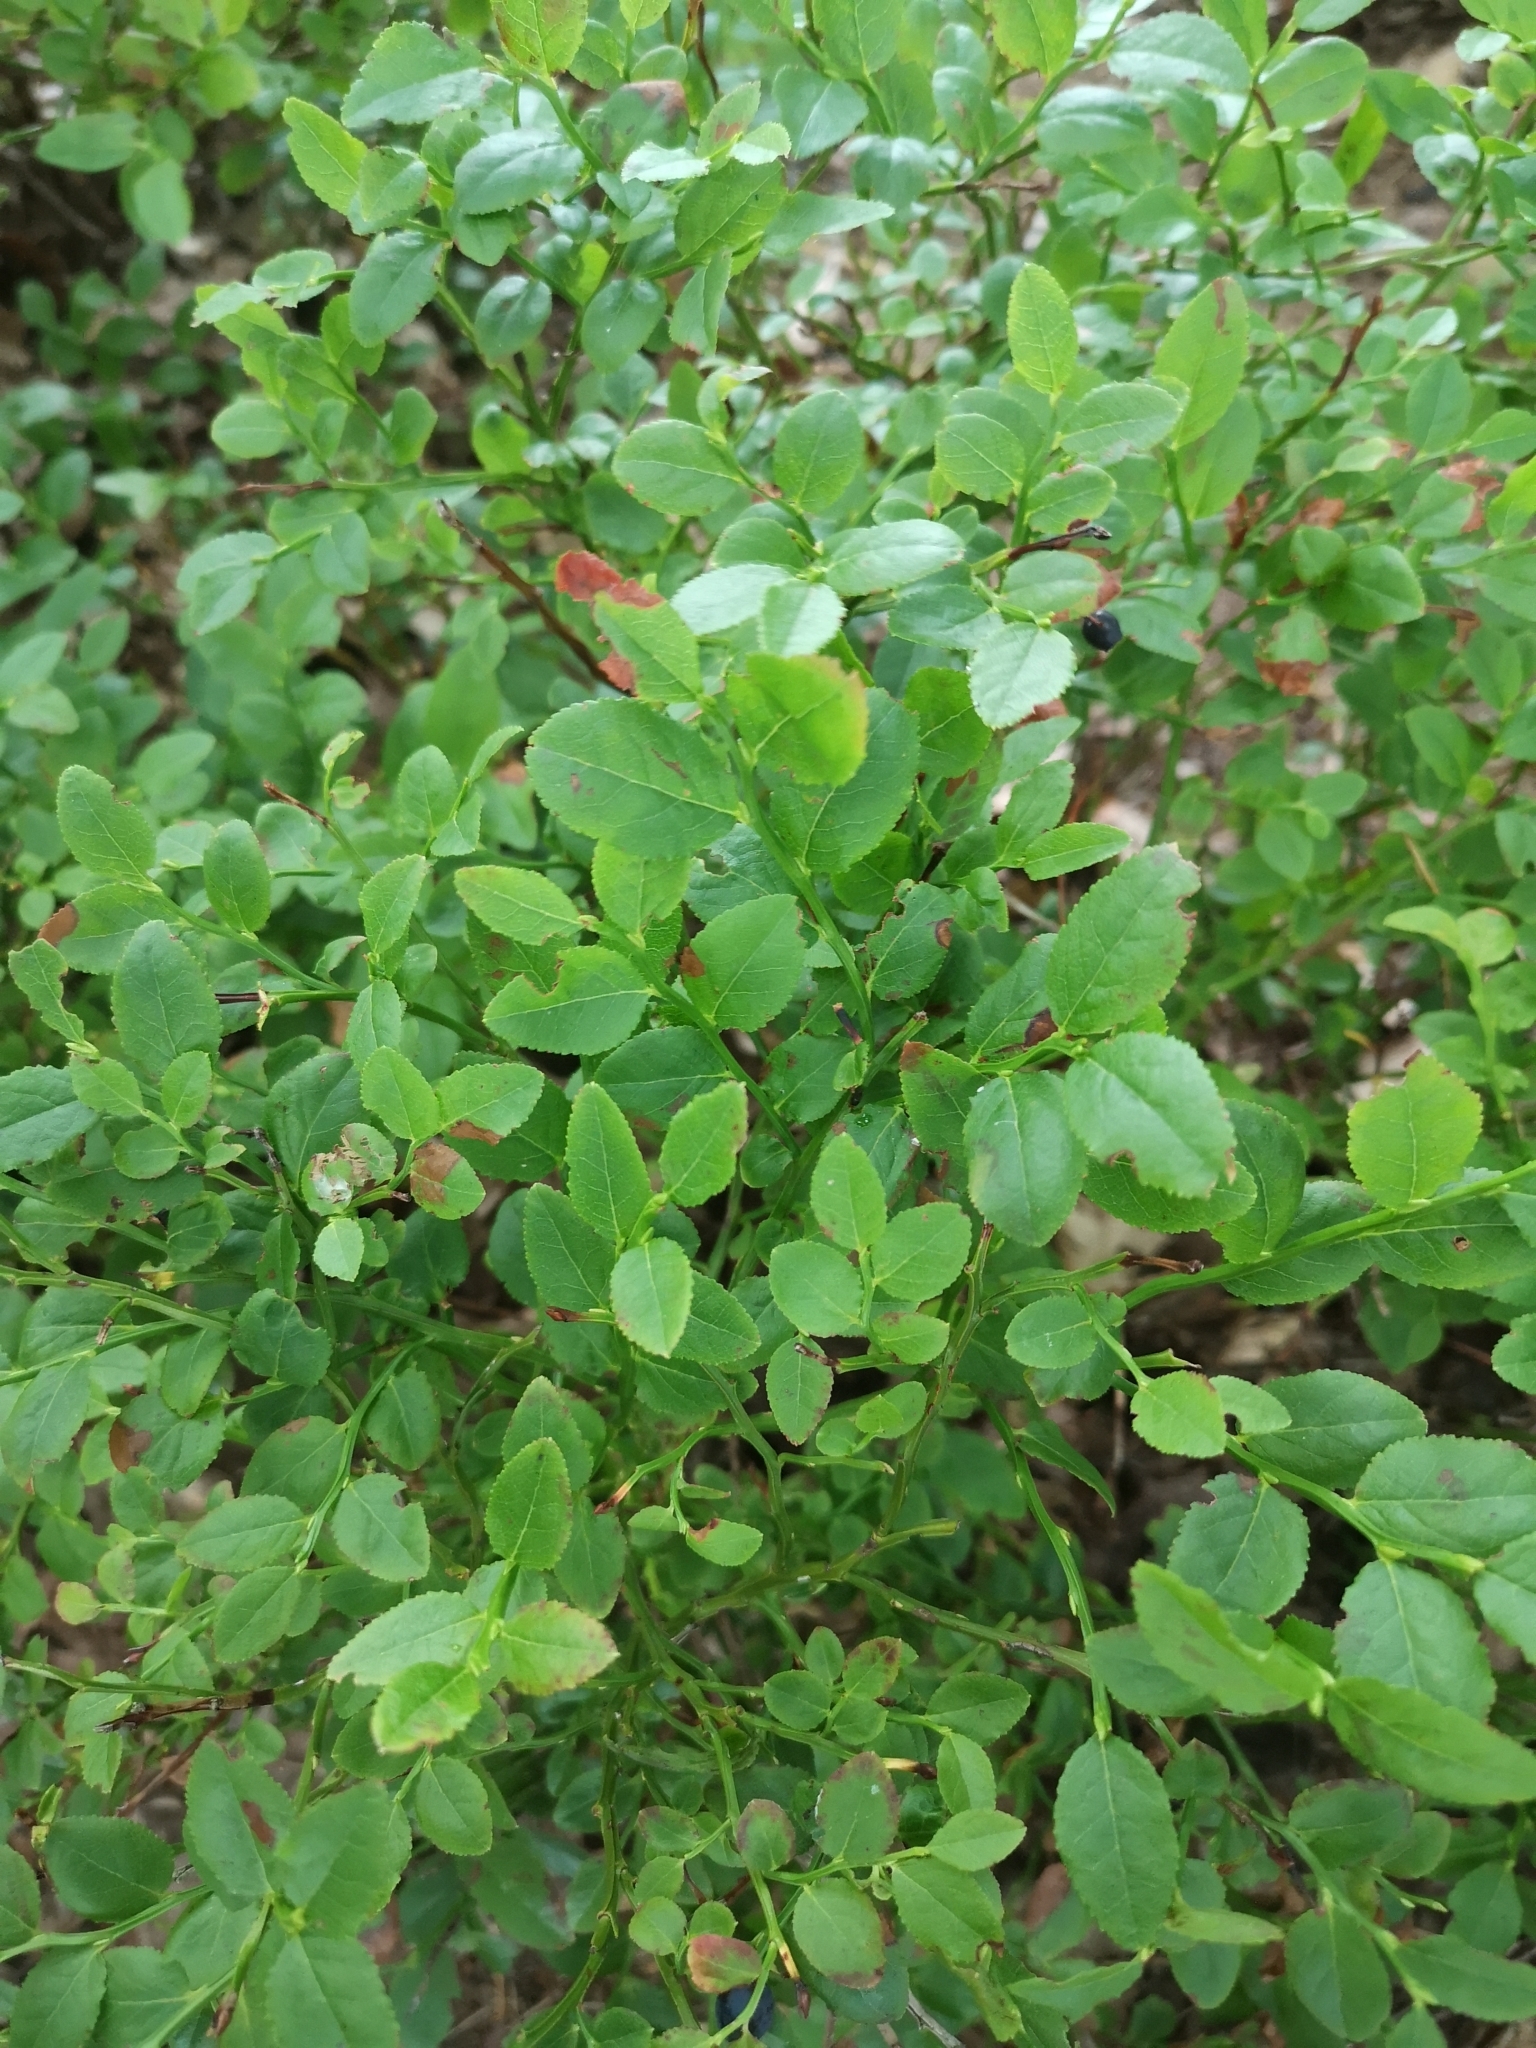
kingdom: Plantae
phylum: Tracheophyta
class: Magnoliopsida
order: Ericales
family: Ericaceae
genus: Vaccinium
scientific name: Vaccinium myrtillus
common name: Bilberry
